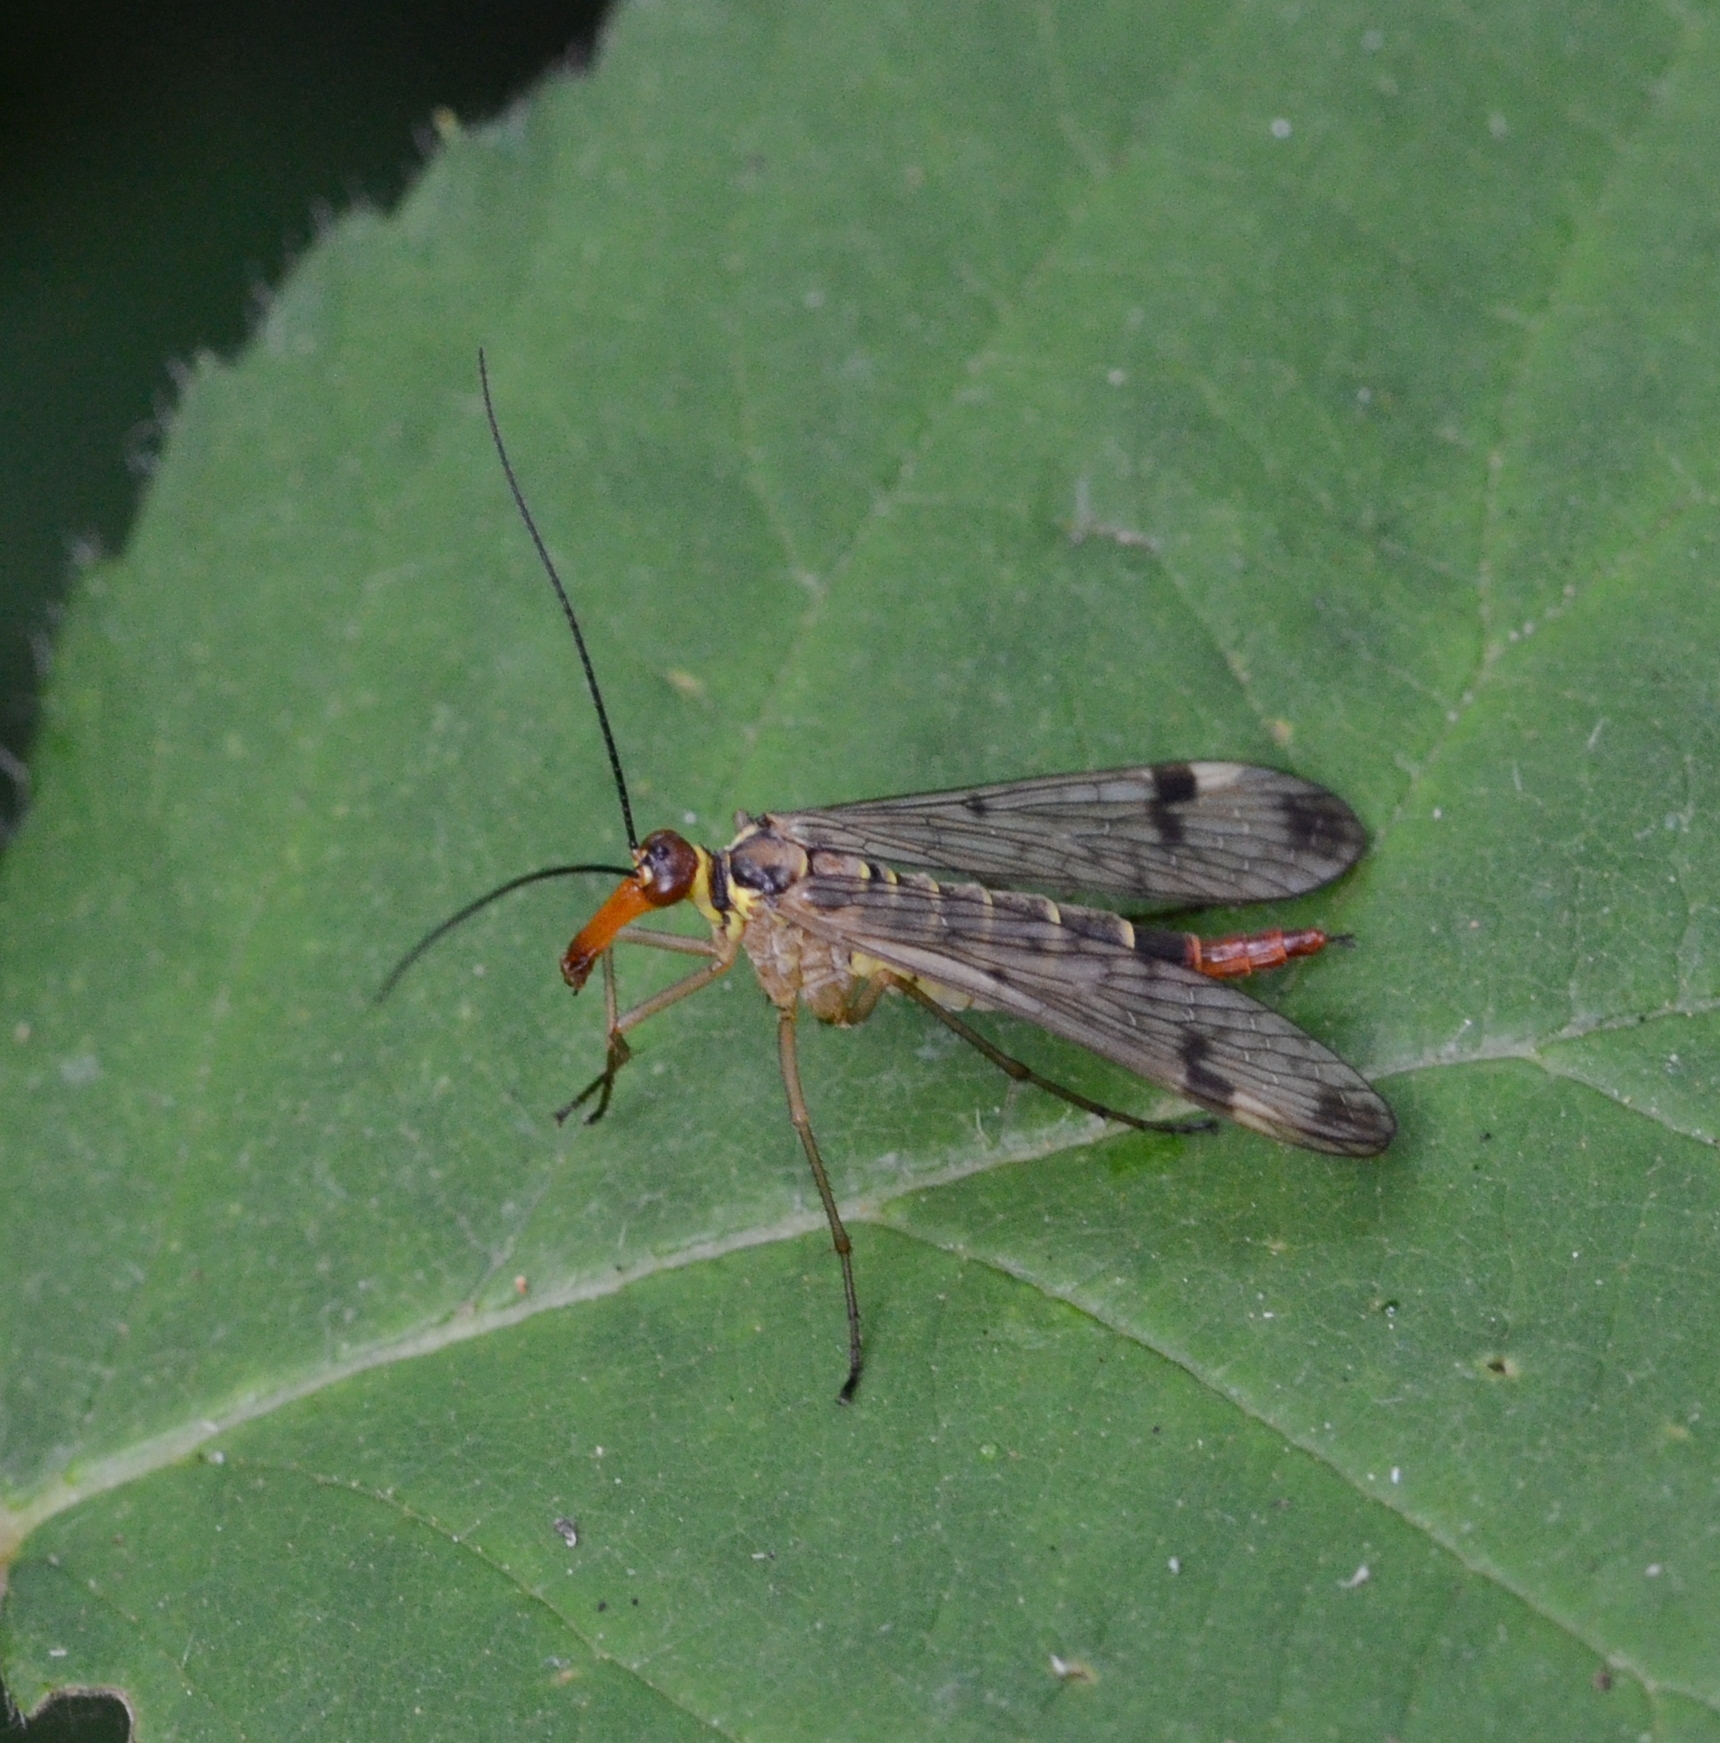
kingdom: Animalia
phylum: Arthropoda
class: Insecta
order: Mecoptera
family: Panorpidae
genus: Panorpa
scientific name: Panorpa cognata
